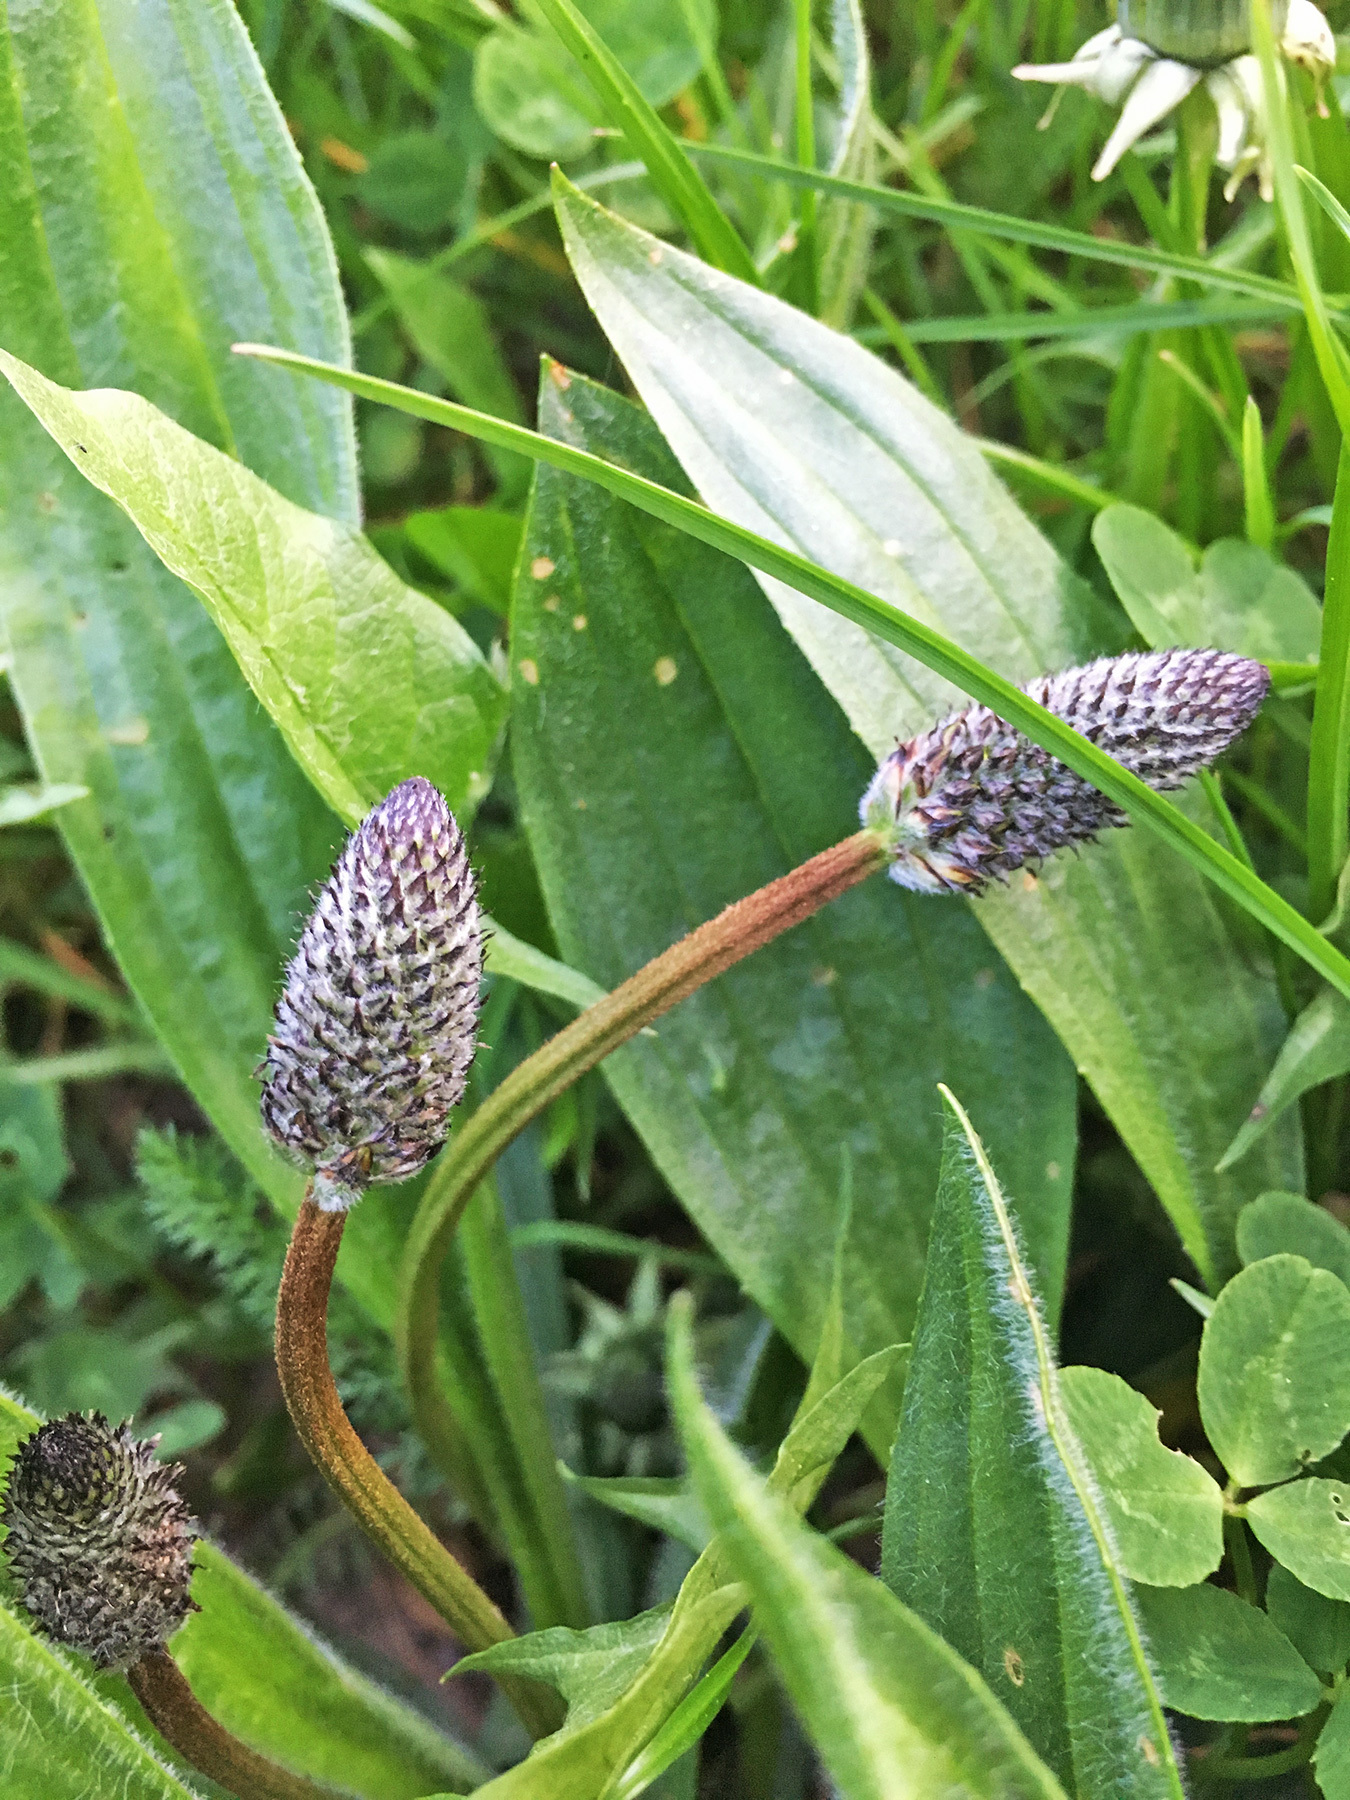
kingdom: Plantae
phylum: Tracheophyta
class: Magnoliopsida
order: Lamiales
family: Plantaginaceae
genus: Plantago
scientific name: Plantago lanceolata
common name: Ribwort plantain
